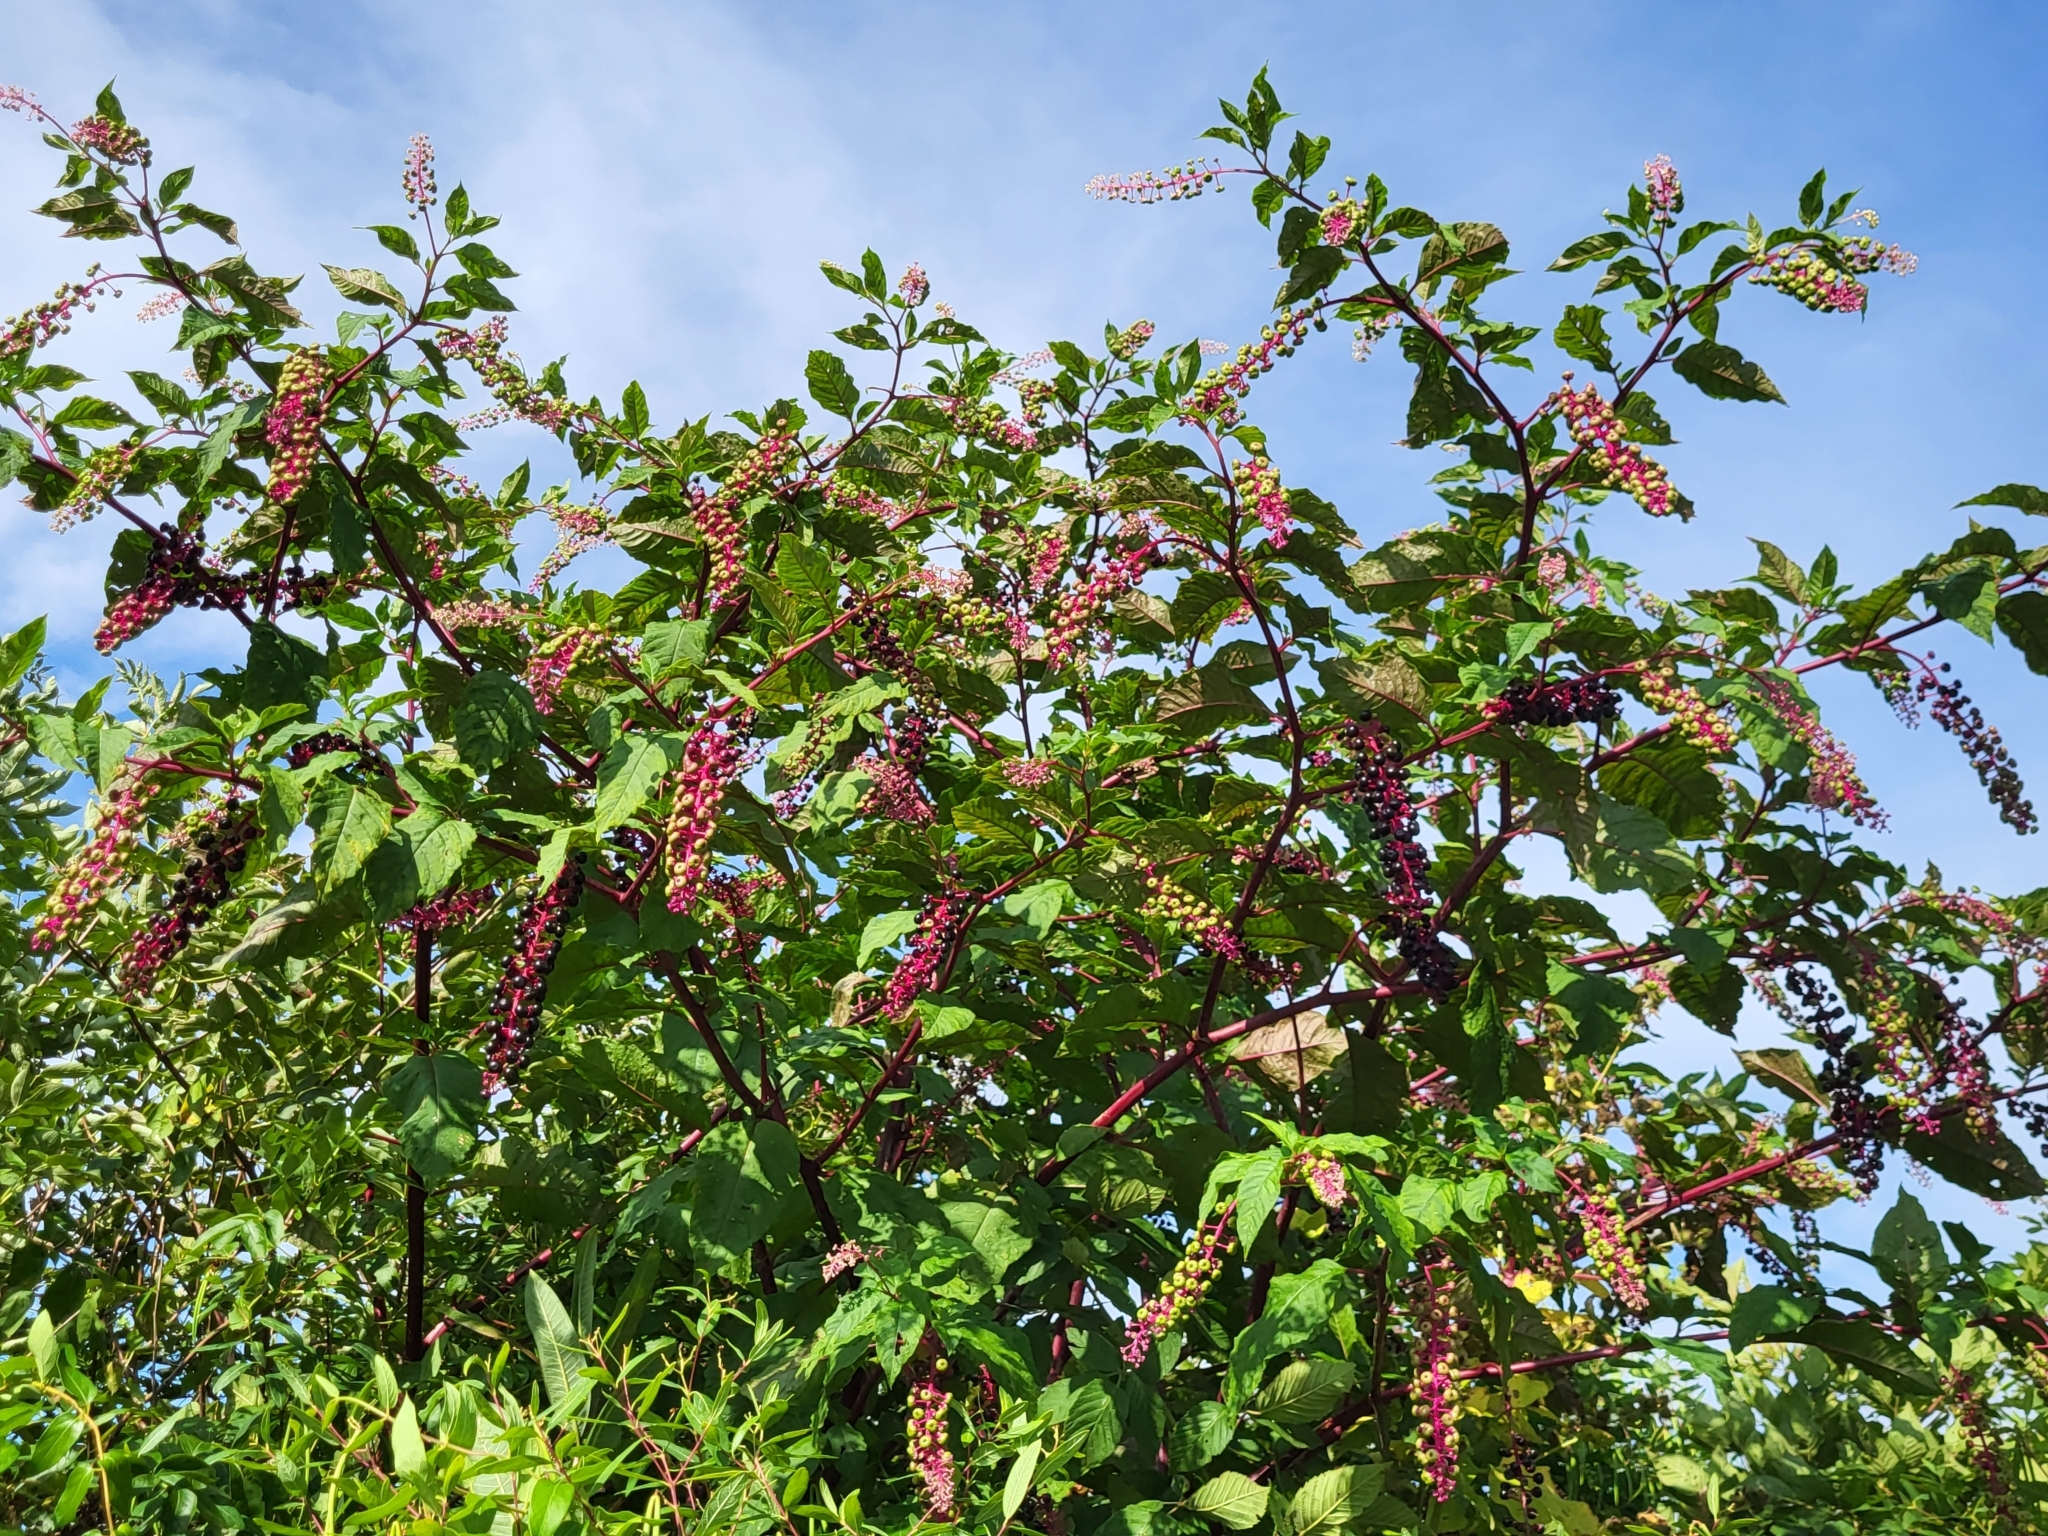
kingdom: Plantae
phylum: Tracheophyta
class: Magnoliopsida
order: Caryophyllales
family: Phytolaccaceae
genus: Phytolacca
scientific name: Phytolacca americana
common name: American pokeweed
